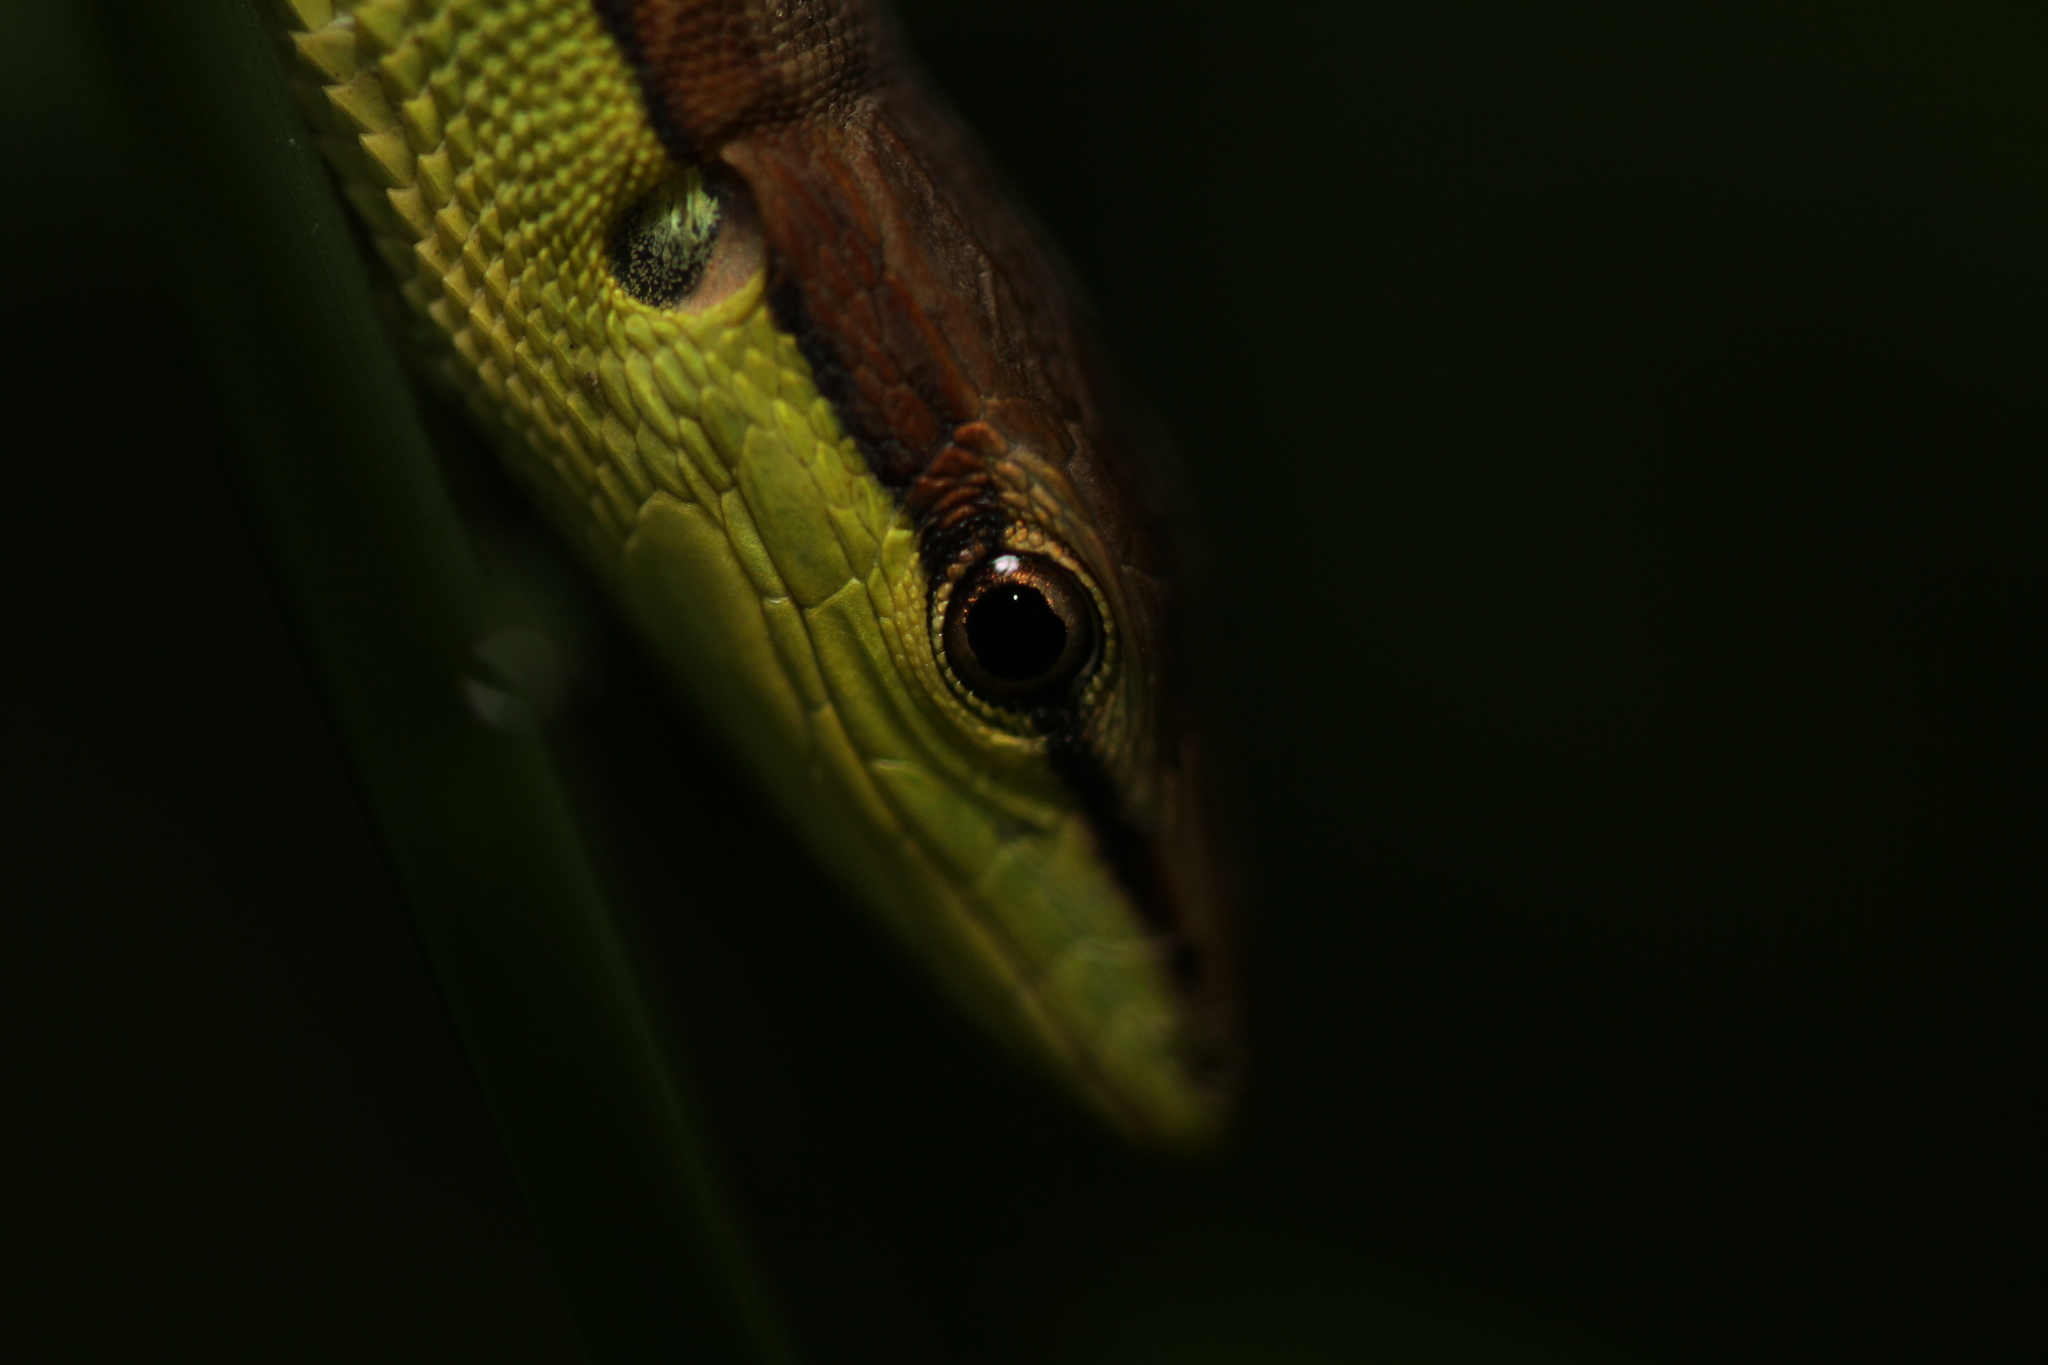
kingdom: Animalia
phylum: Chordata
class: Squamata
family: Lacertidae
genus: Takydromus
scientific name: Takydromus sexlineatus
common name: Asian grass lizard
